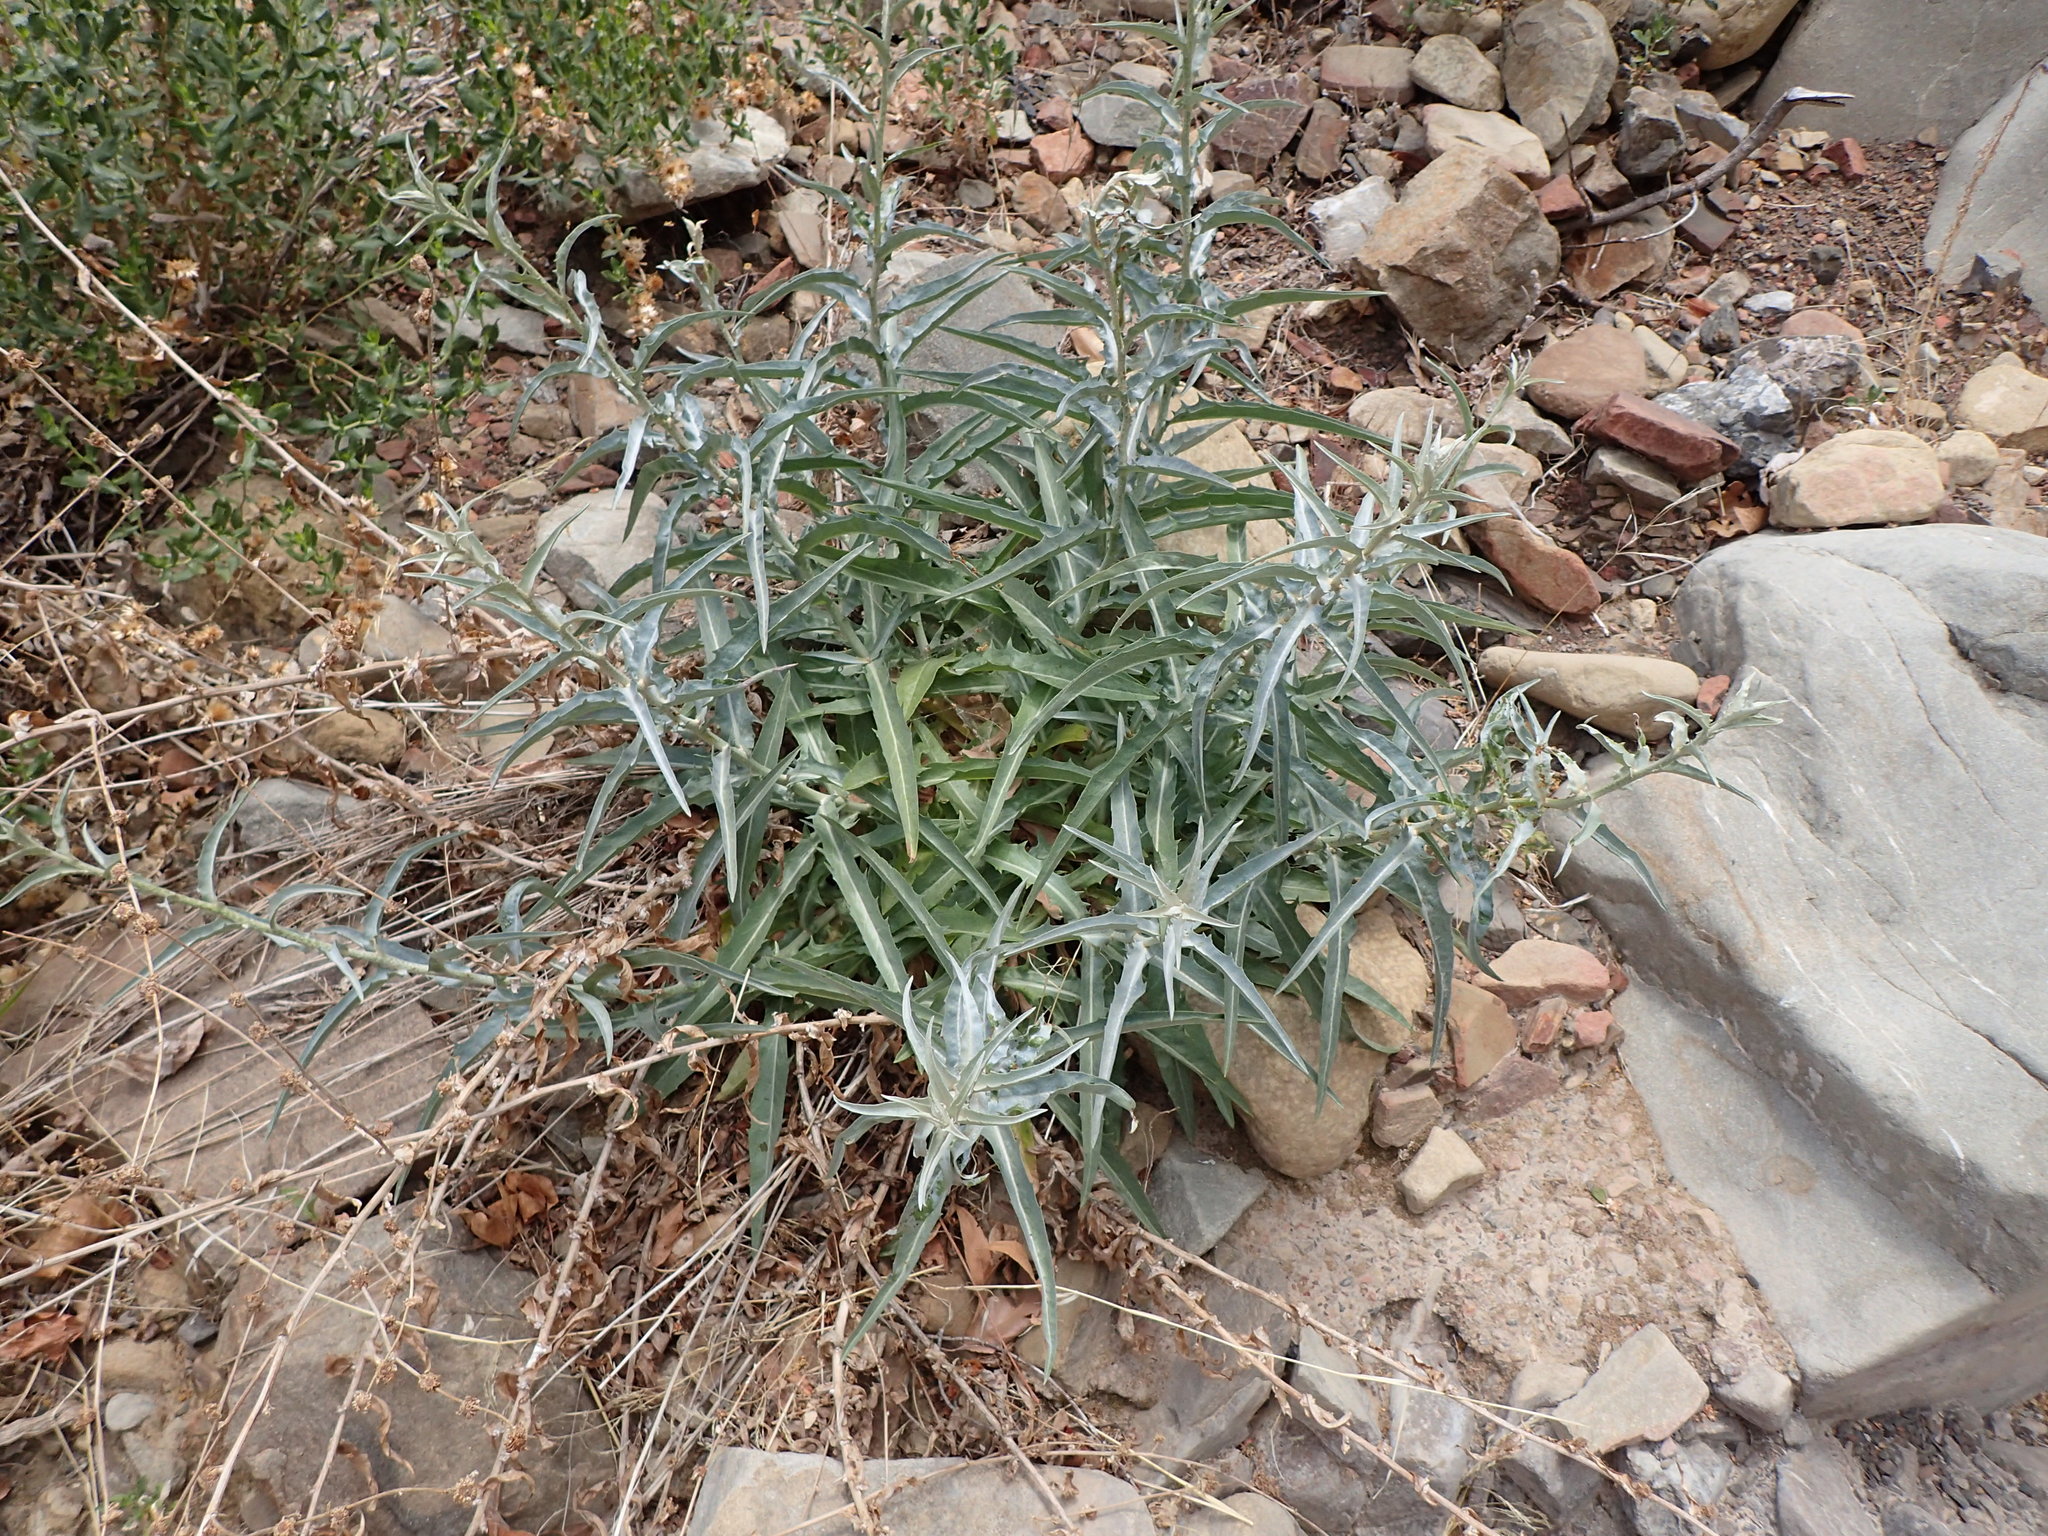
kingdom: Plantae
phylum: Tracheophyta
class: Magnoliopsida
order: Asterales
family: Asteraceae
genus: Stephanomeria
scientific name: Stephanomeria cichoriacea
